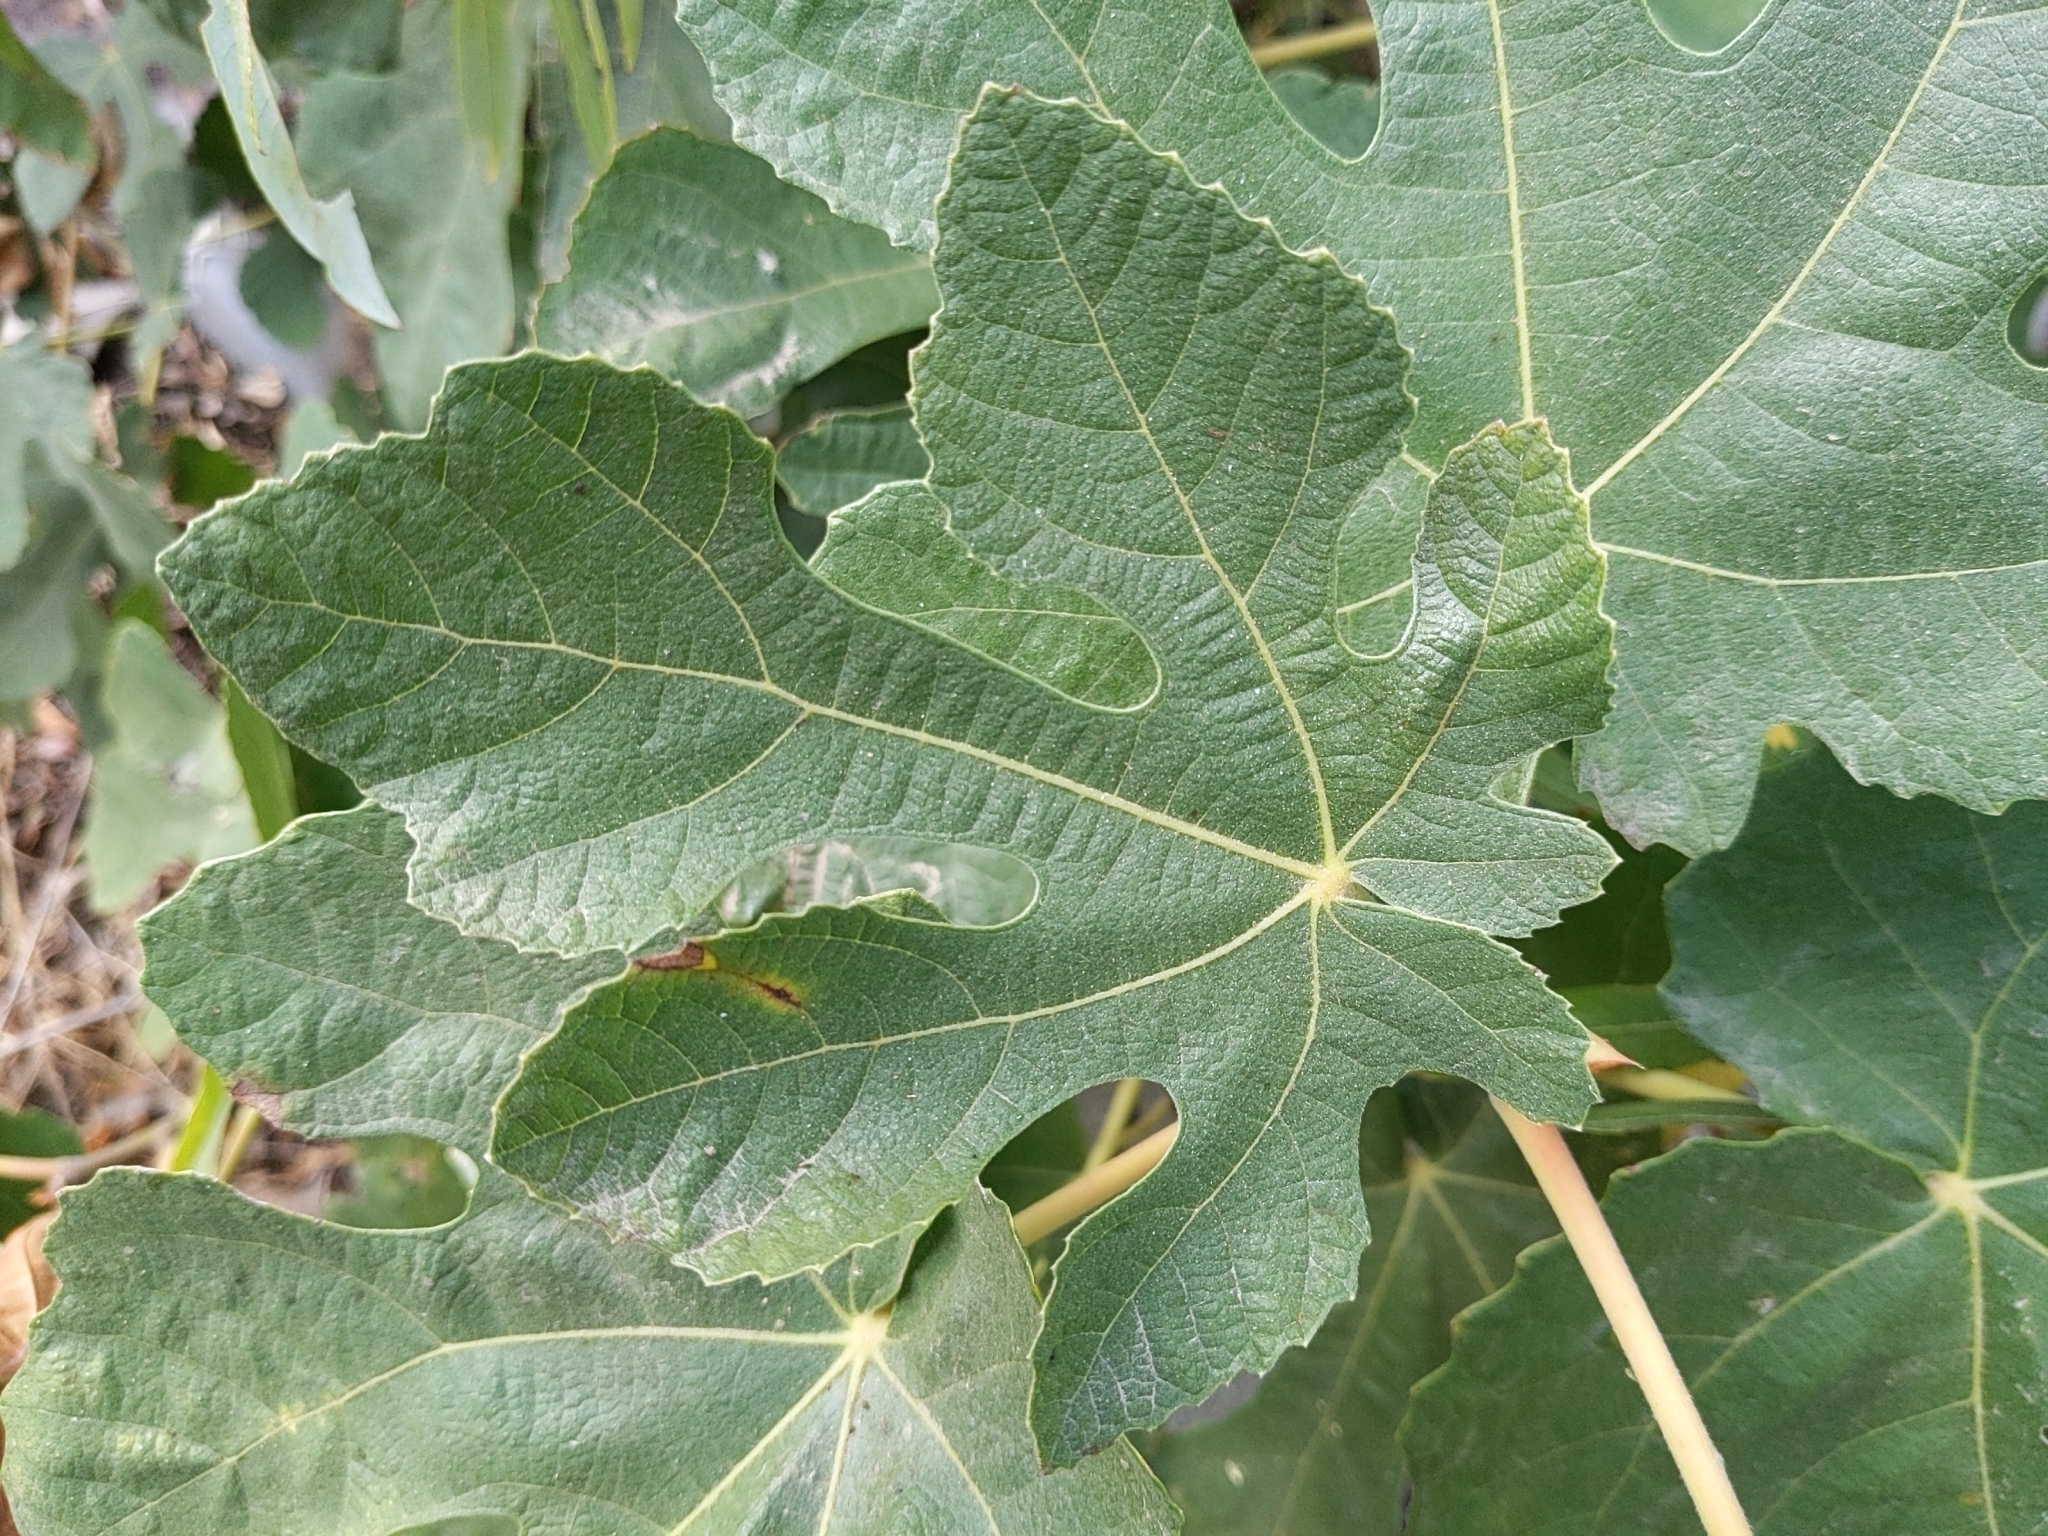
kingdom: Plantae
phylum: Tracheophyta
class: Magnoliopsida
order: Rosales
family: Moraceae
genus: Ficus
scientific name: Ficus carica
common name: Fig
